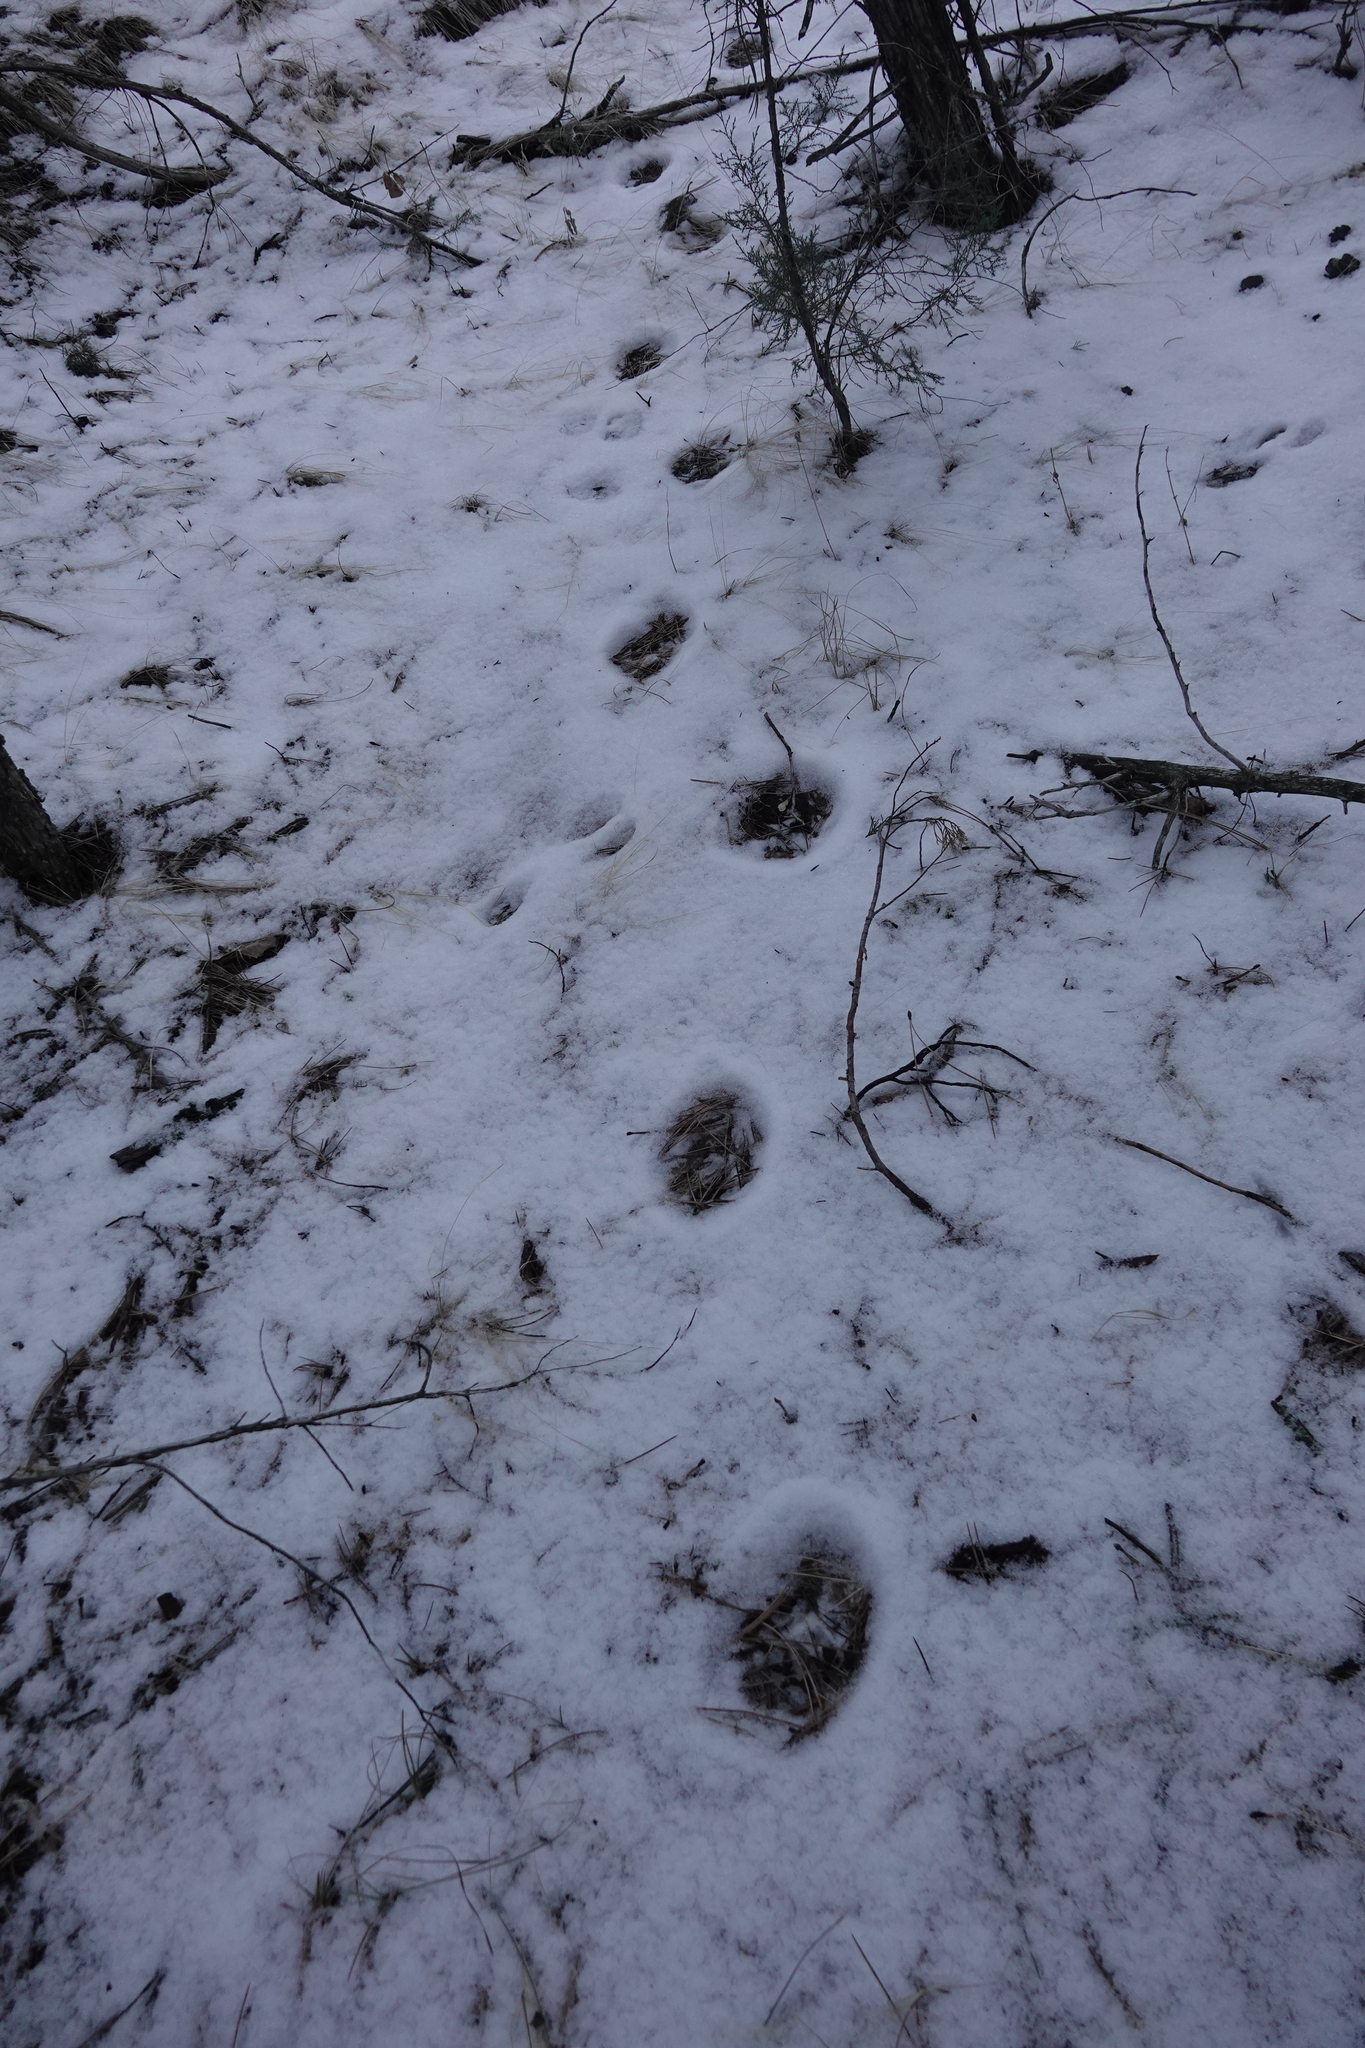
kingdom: Animalia
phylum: Chordata
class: Mammalia
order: Carnivora
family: Felidae
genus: Puma
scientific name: Puma concolor
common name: Puma
